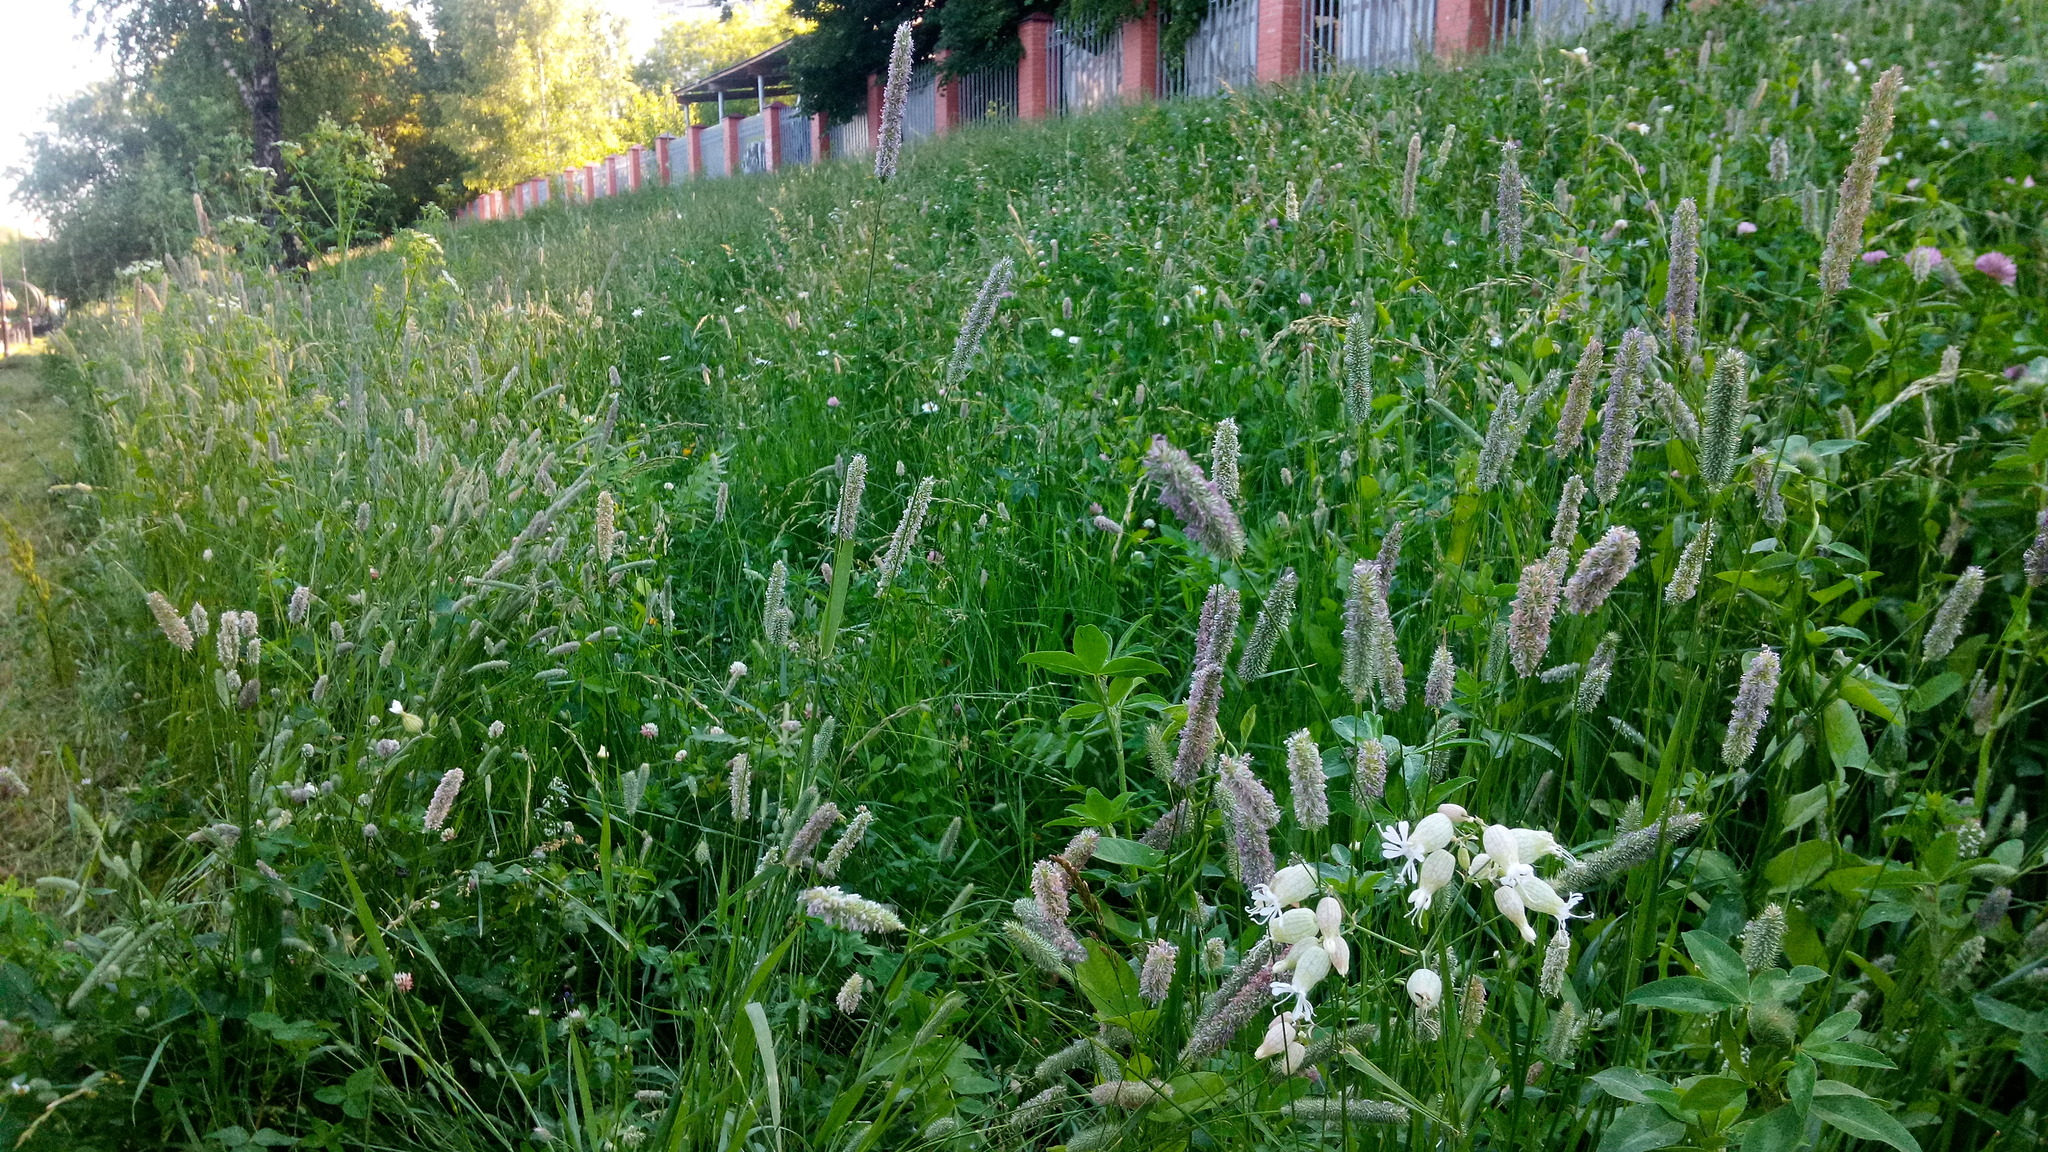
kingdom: Plantae
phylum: Tracheophyta
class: Liliopsida
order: Poales
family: Poaceae
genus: Phleum
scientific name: Phleum pratense
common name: Timothy grass
